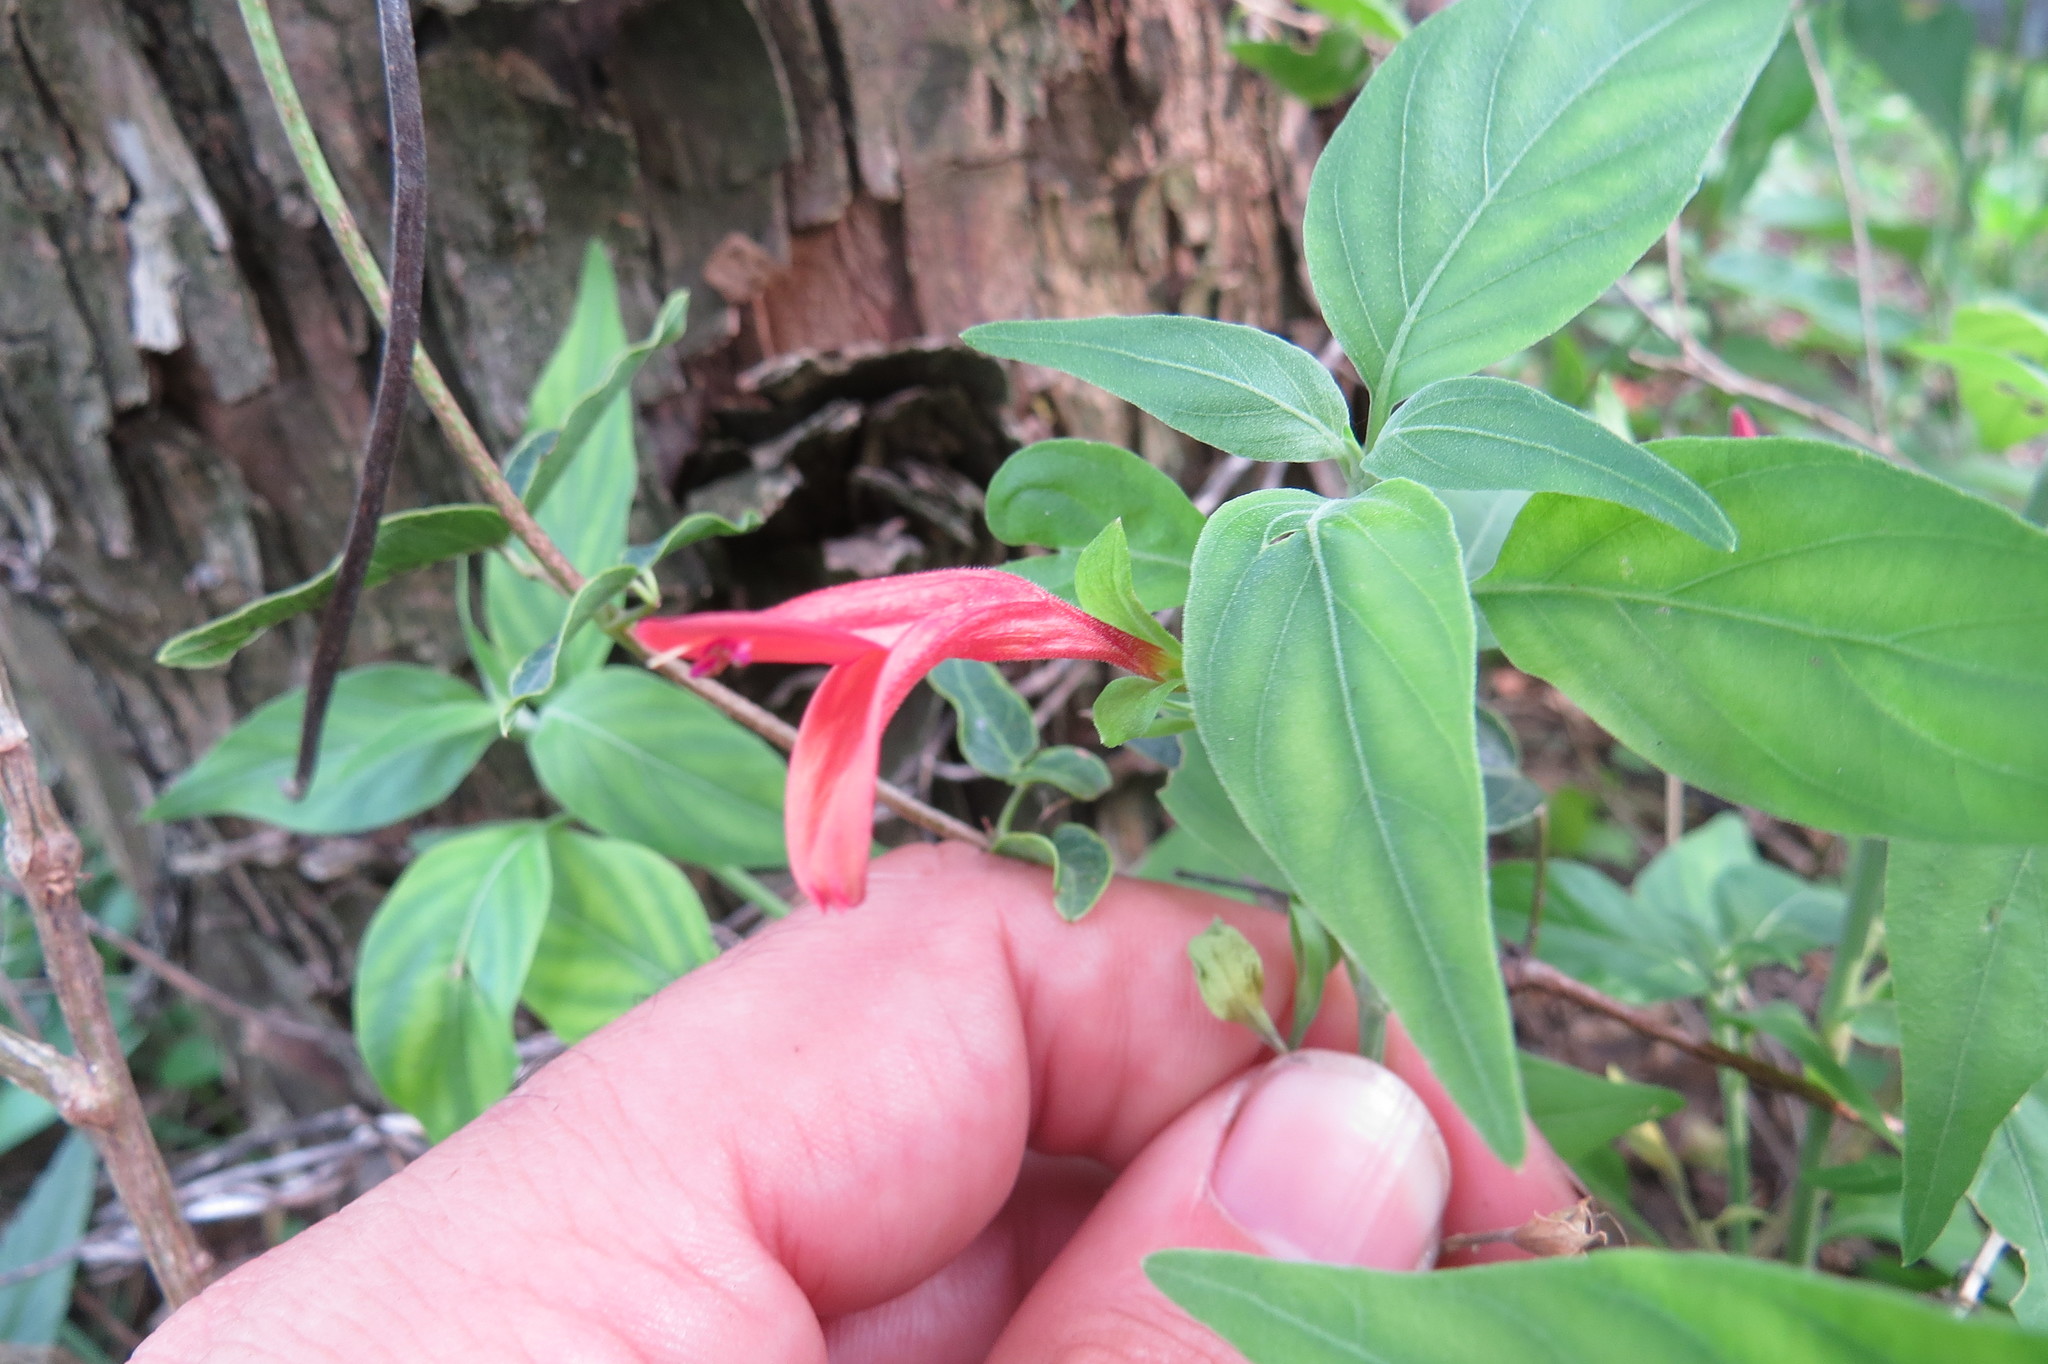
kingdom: Plantae
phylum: Tracheophyta
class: Magnoliopsida
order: Lamiales
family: Acanthaceae
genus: Dicliptera
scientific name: Dicliptera squarrosa
